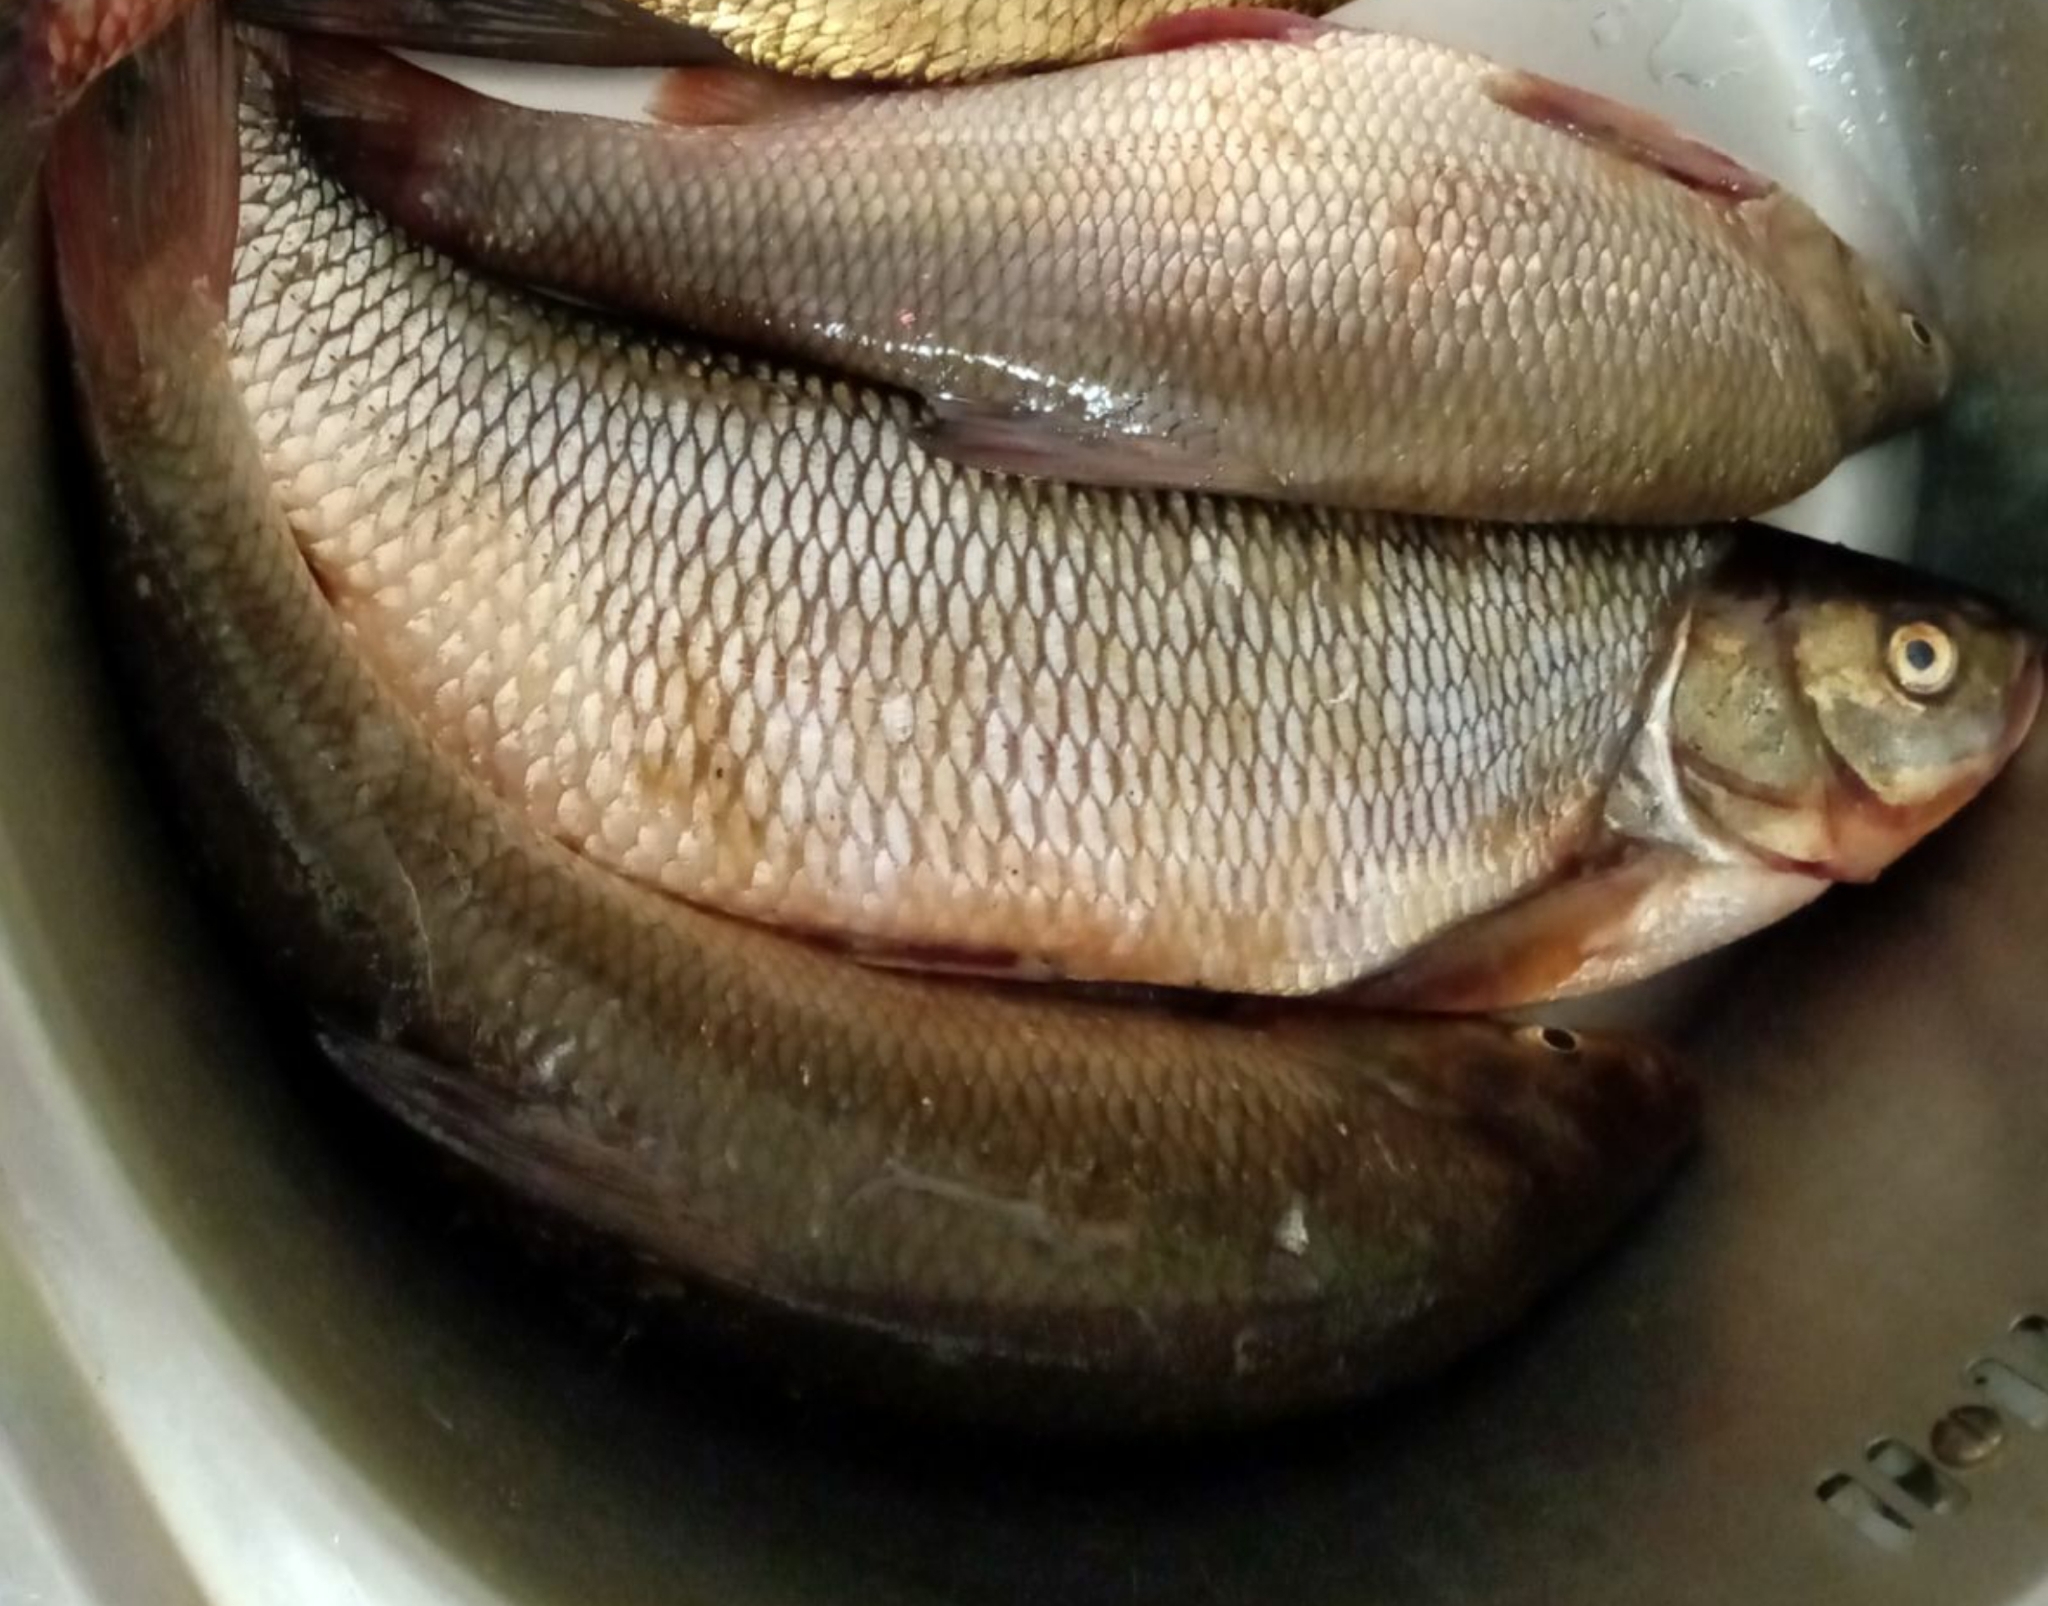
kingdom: Animalia
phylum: Chordata
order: Cypriniformes
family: Cyprinidae
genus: Leuciscus
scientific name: Leuciscus idus
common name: Ide
